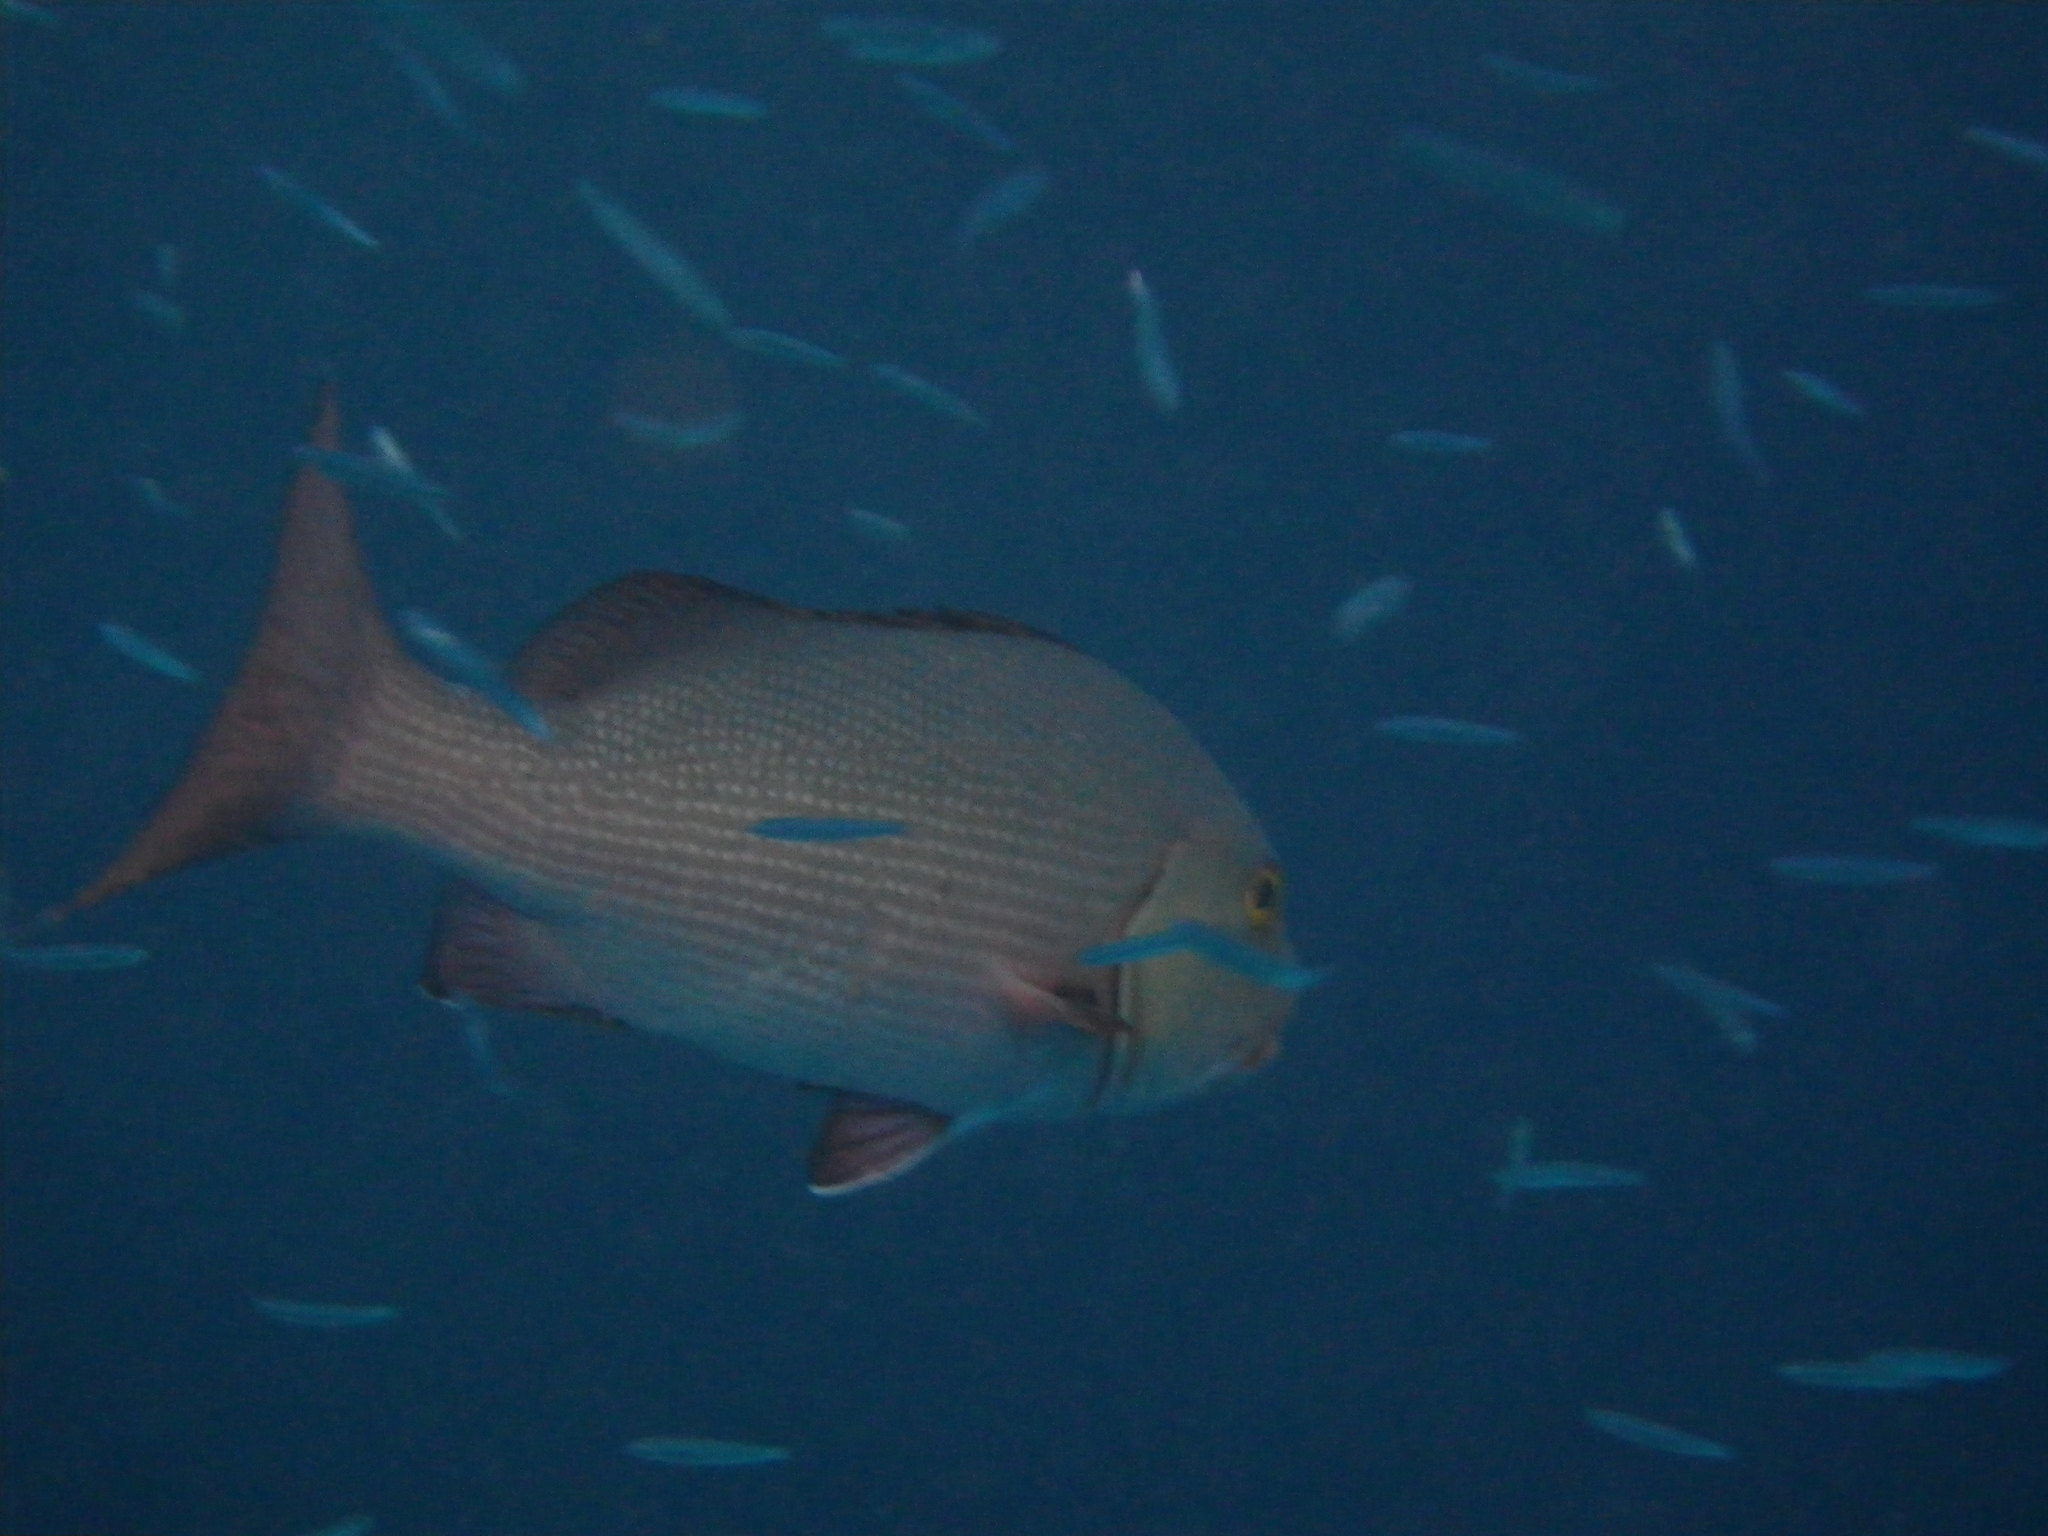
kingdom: Animalia
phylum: Chordata
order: Perciformes
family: Lutjanidae
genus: Lutjanus
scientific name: Lutjanus bohar
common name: Red bass
